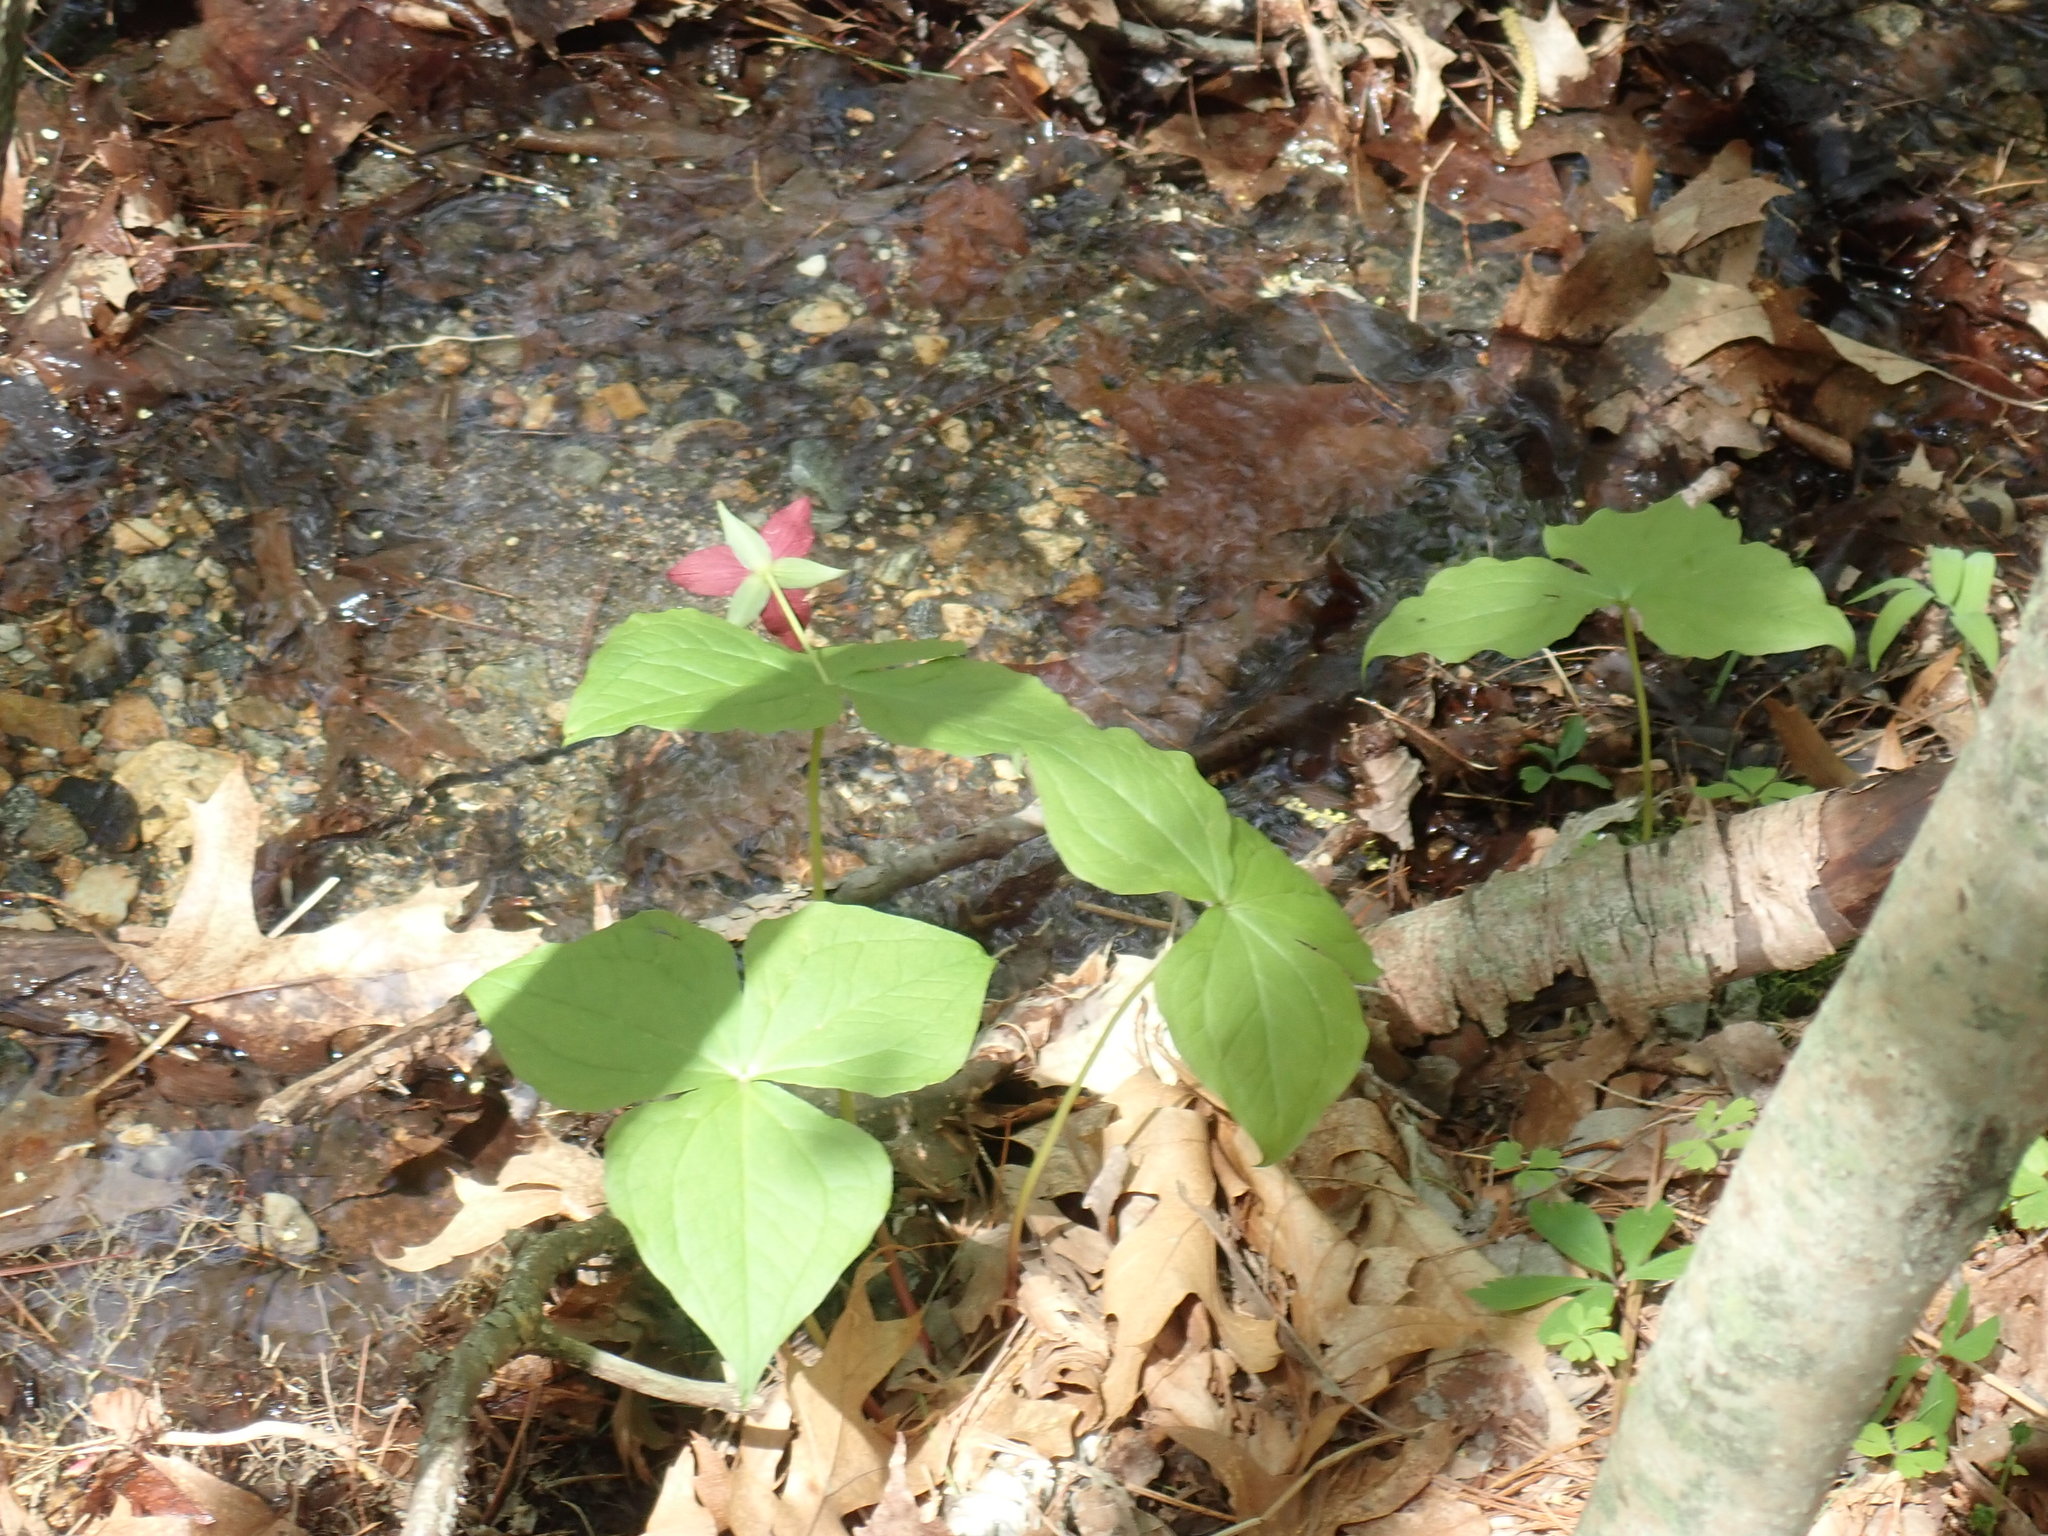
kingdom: Plantae
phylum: Tracheophyta
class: Liliopsida
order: Liliales
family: Melanthiaceae
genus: Trillium
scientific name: Trillium erectum
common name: Purple trillium
